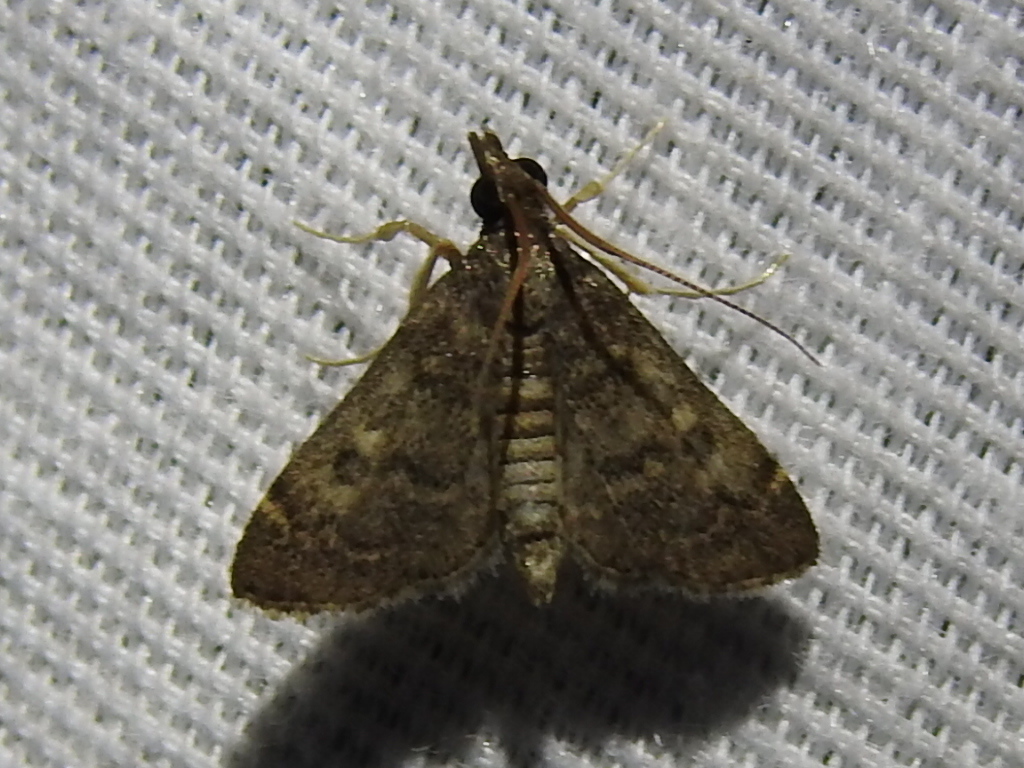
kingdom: Animalia
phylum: Arthropoda
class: Insecta
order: Lepidoptera
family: Crambidae
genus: Steniodes
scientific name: Steniodes declivalis
